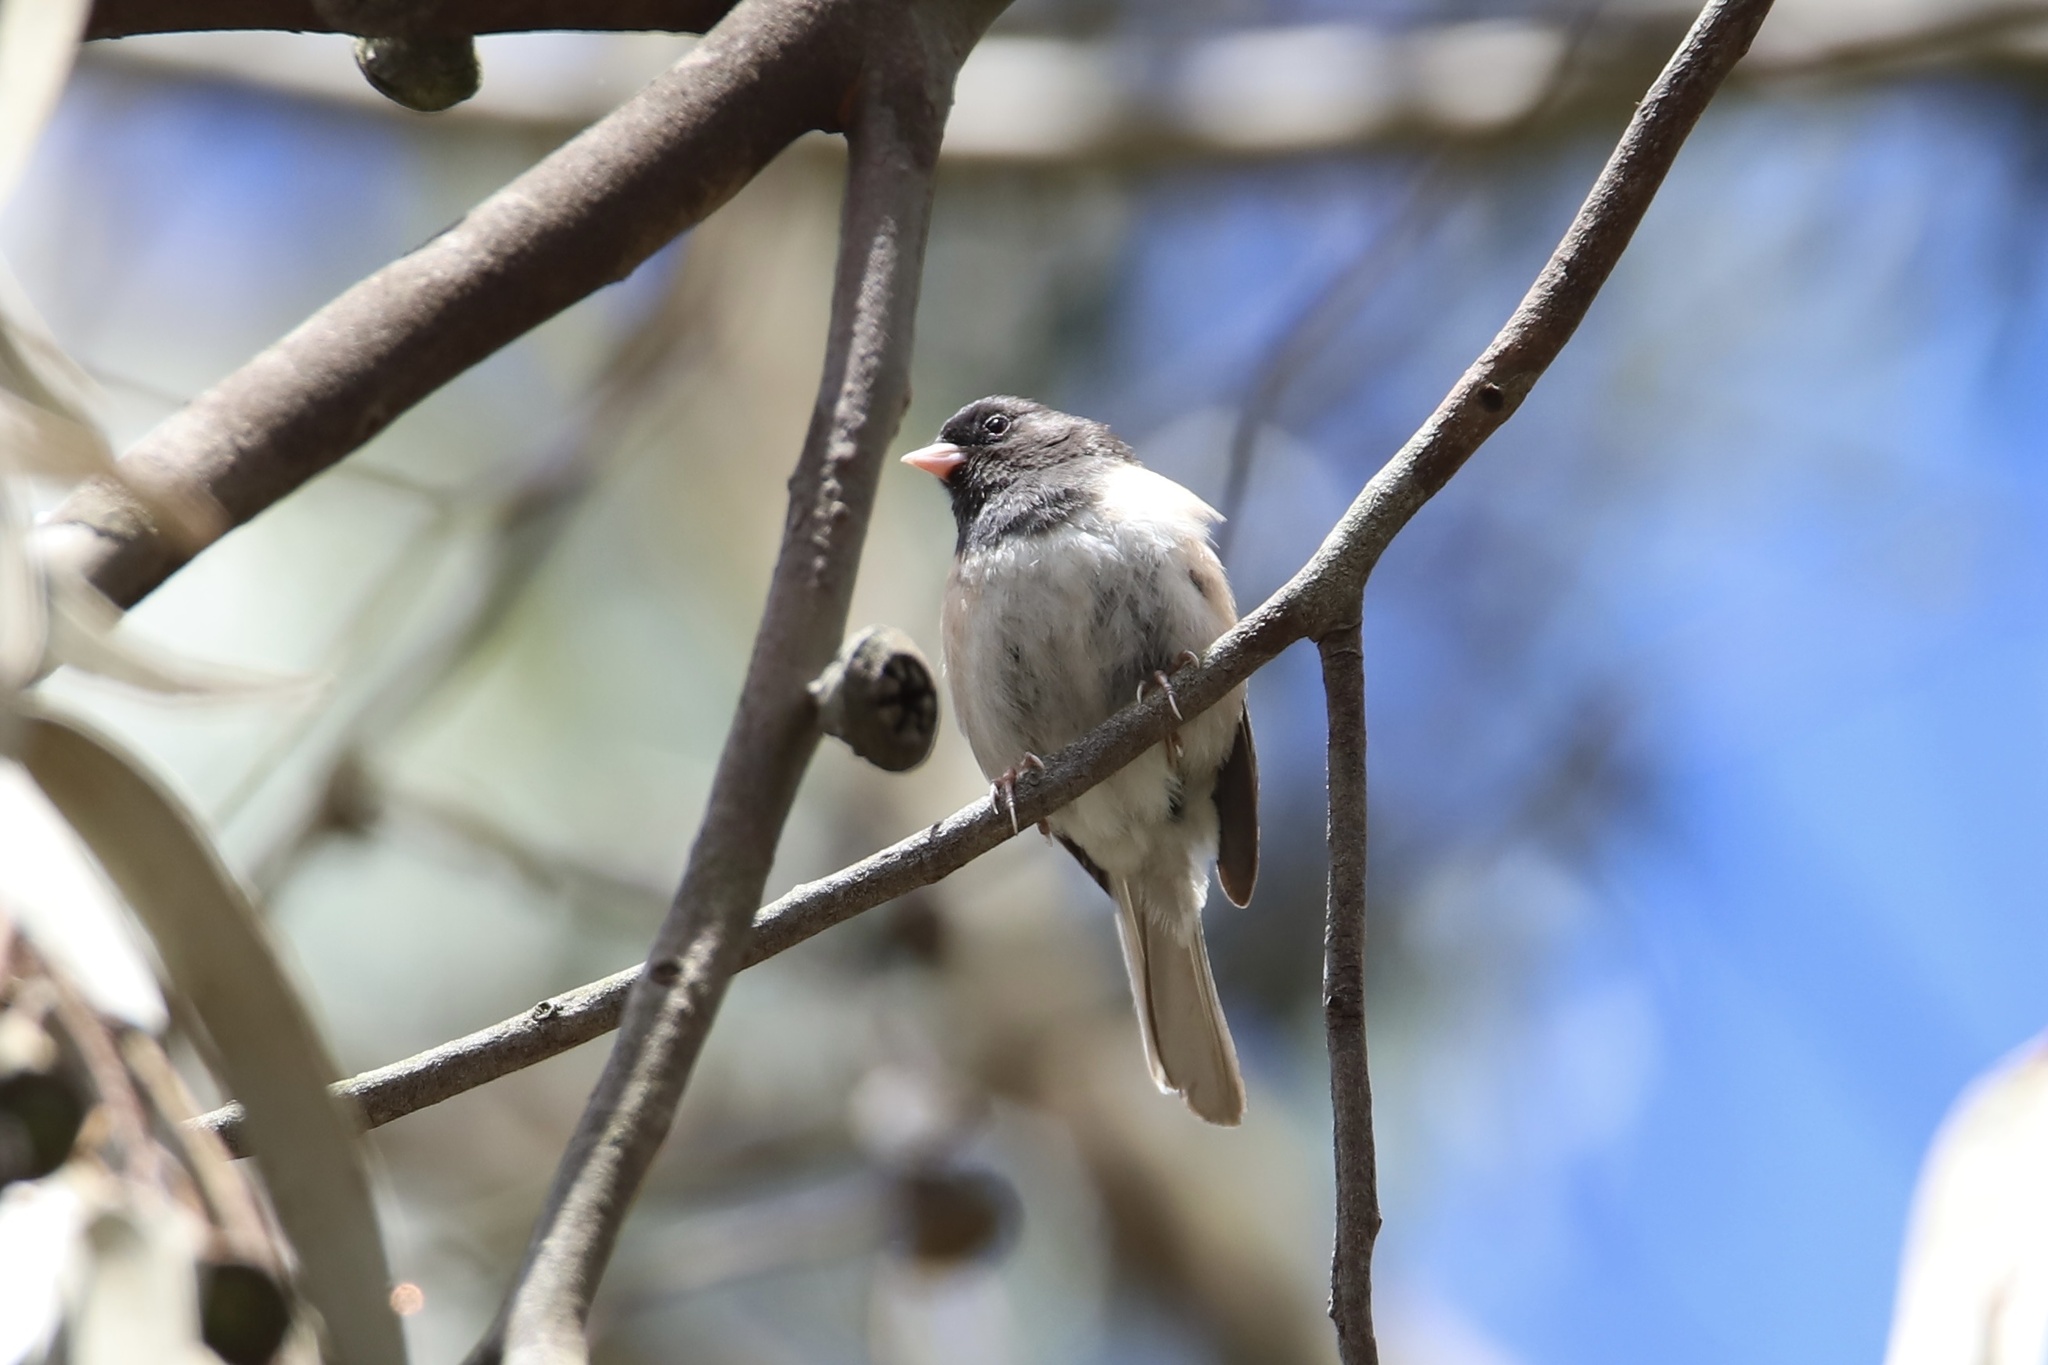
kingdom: Animalia
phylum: Chordata
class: Aves
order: Passeriformes
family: Passerellidae
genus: Junco
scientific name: Junco hyemalis
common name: Dark-eyed junco
